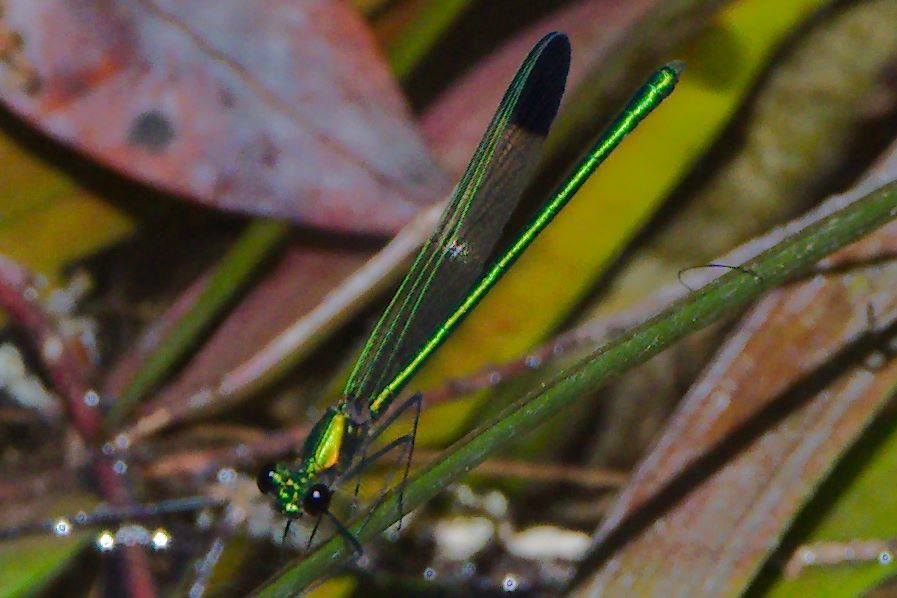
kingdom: Animalia
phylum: Arthropoda
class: Insecta
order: Odonata
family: Calopterygidae
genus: Calopteryx
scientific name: Calopteryx dimidiata
